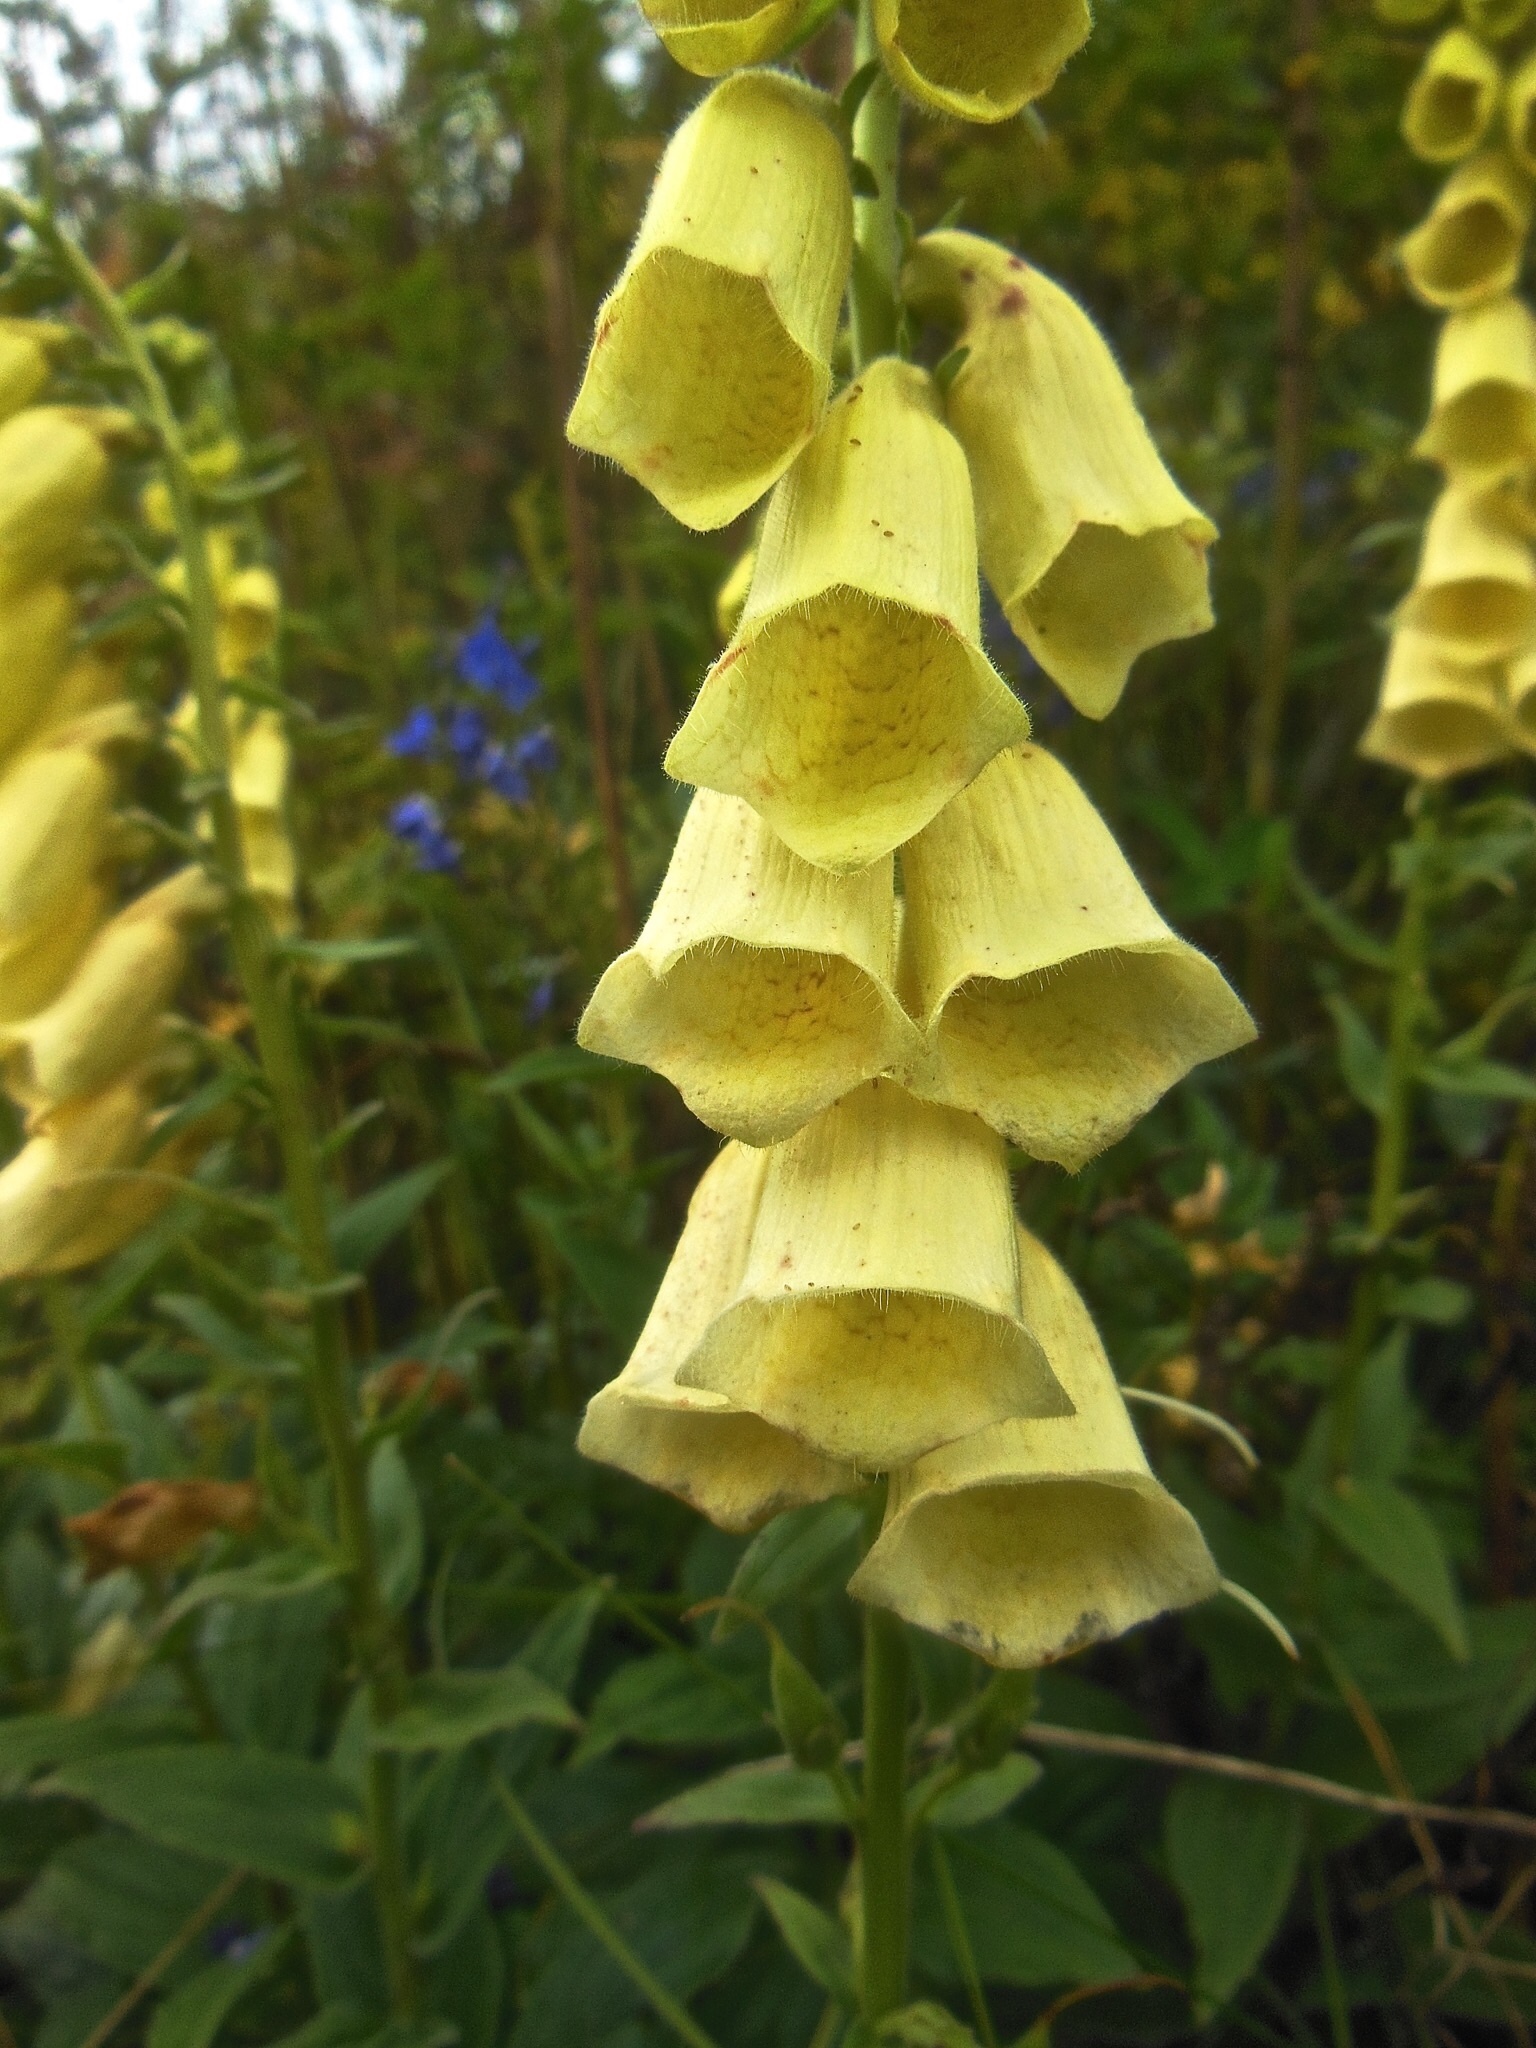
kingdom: Plantae
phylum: Tracheophyta
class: Magnoliopsida
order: Lamiales
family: Plantaginaceae
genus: Digitalis
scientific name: Digitalis grandiflora
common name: Yellow foxglove
